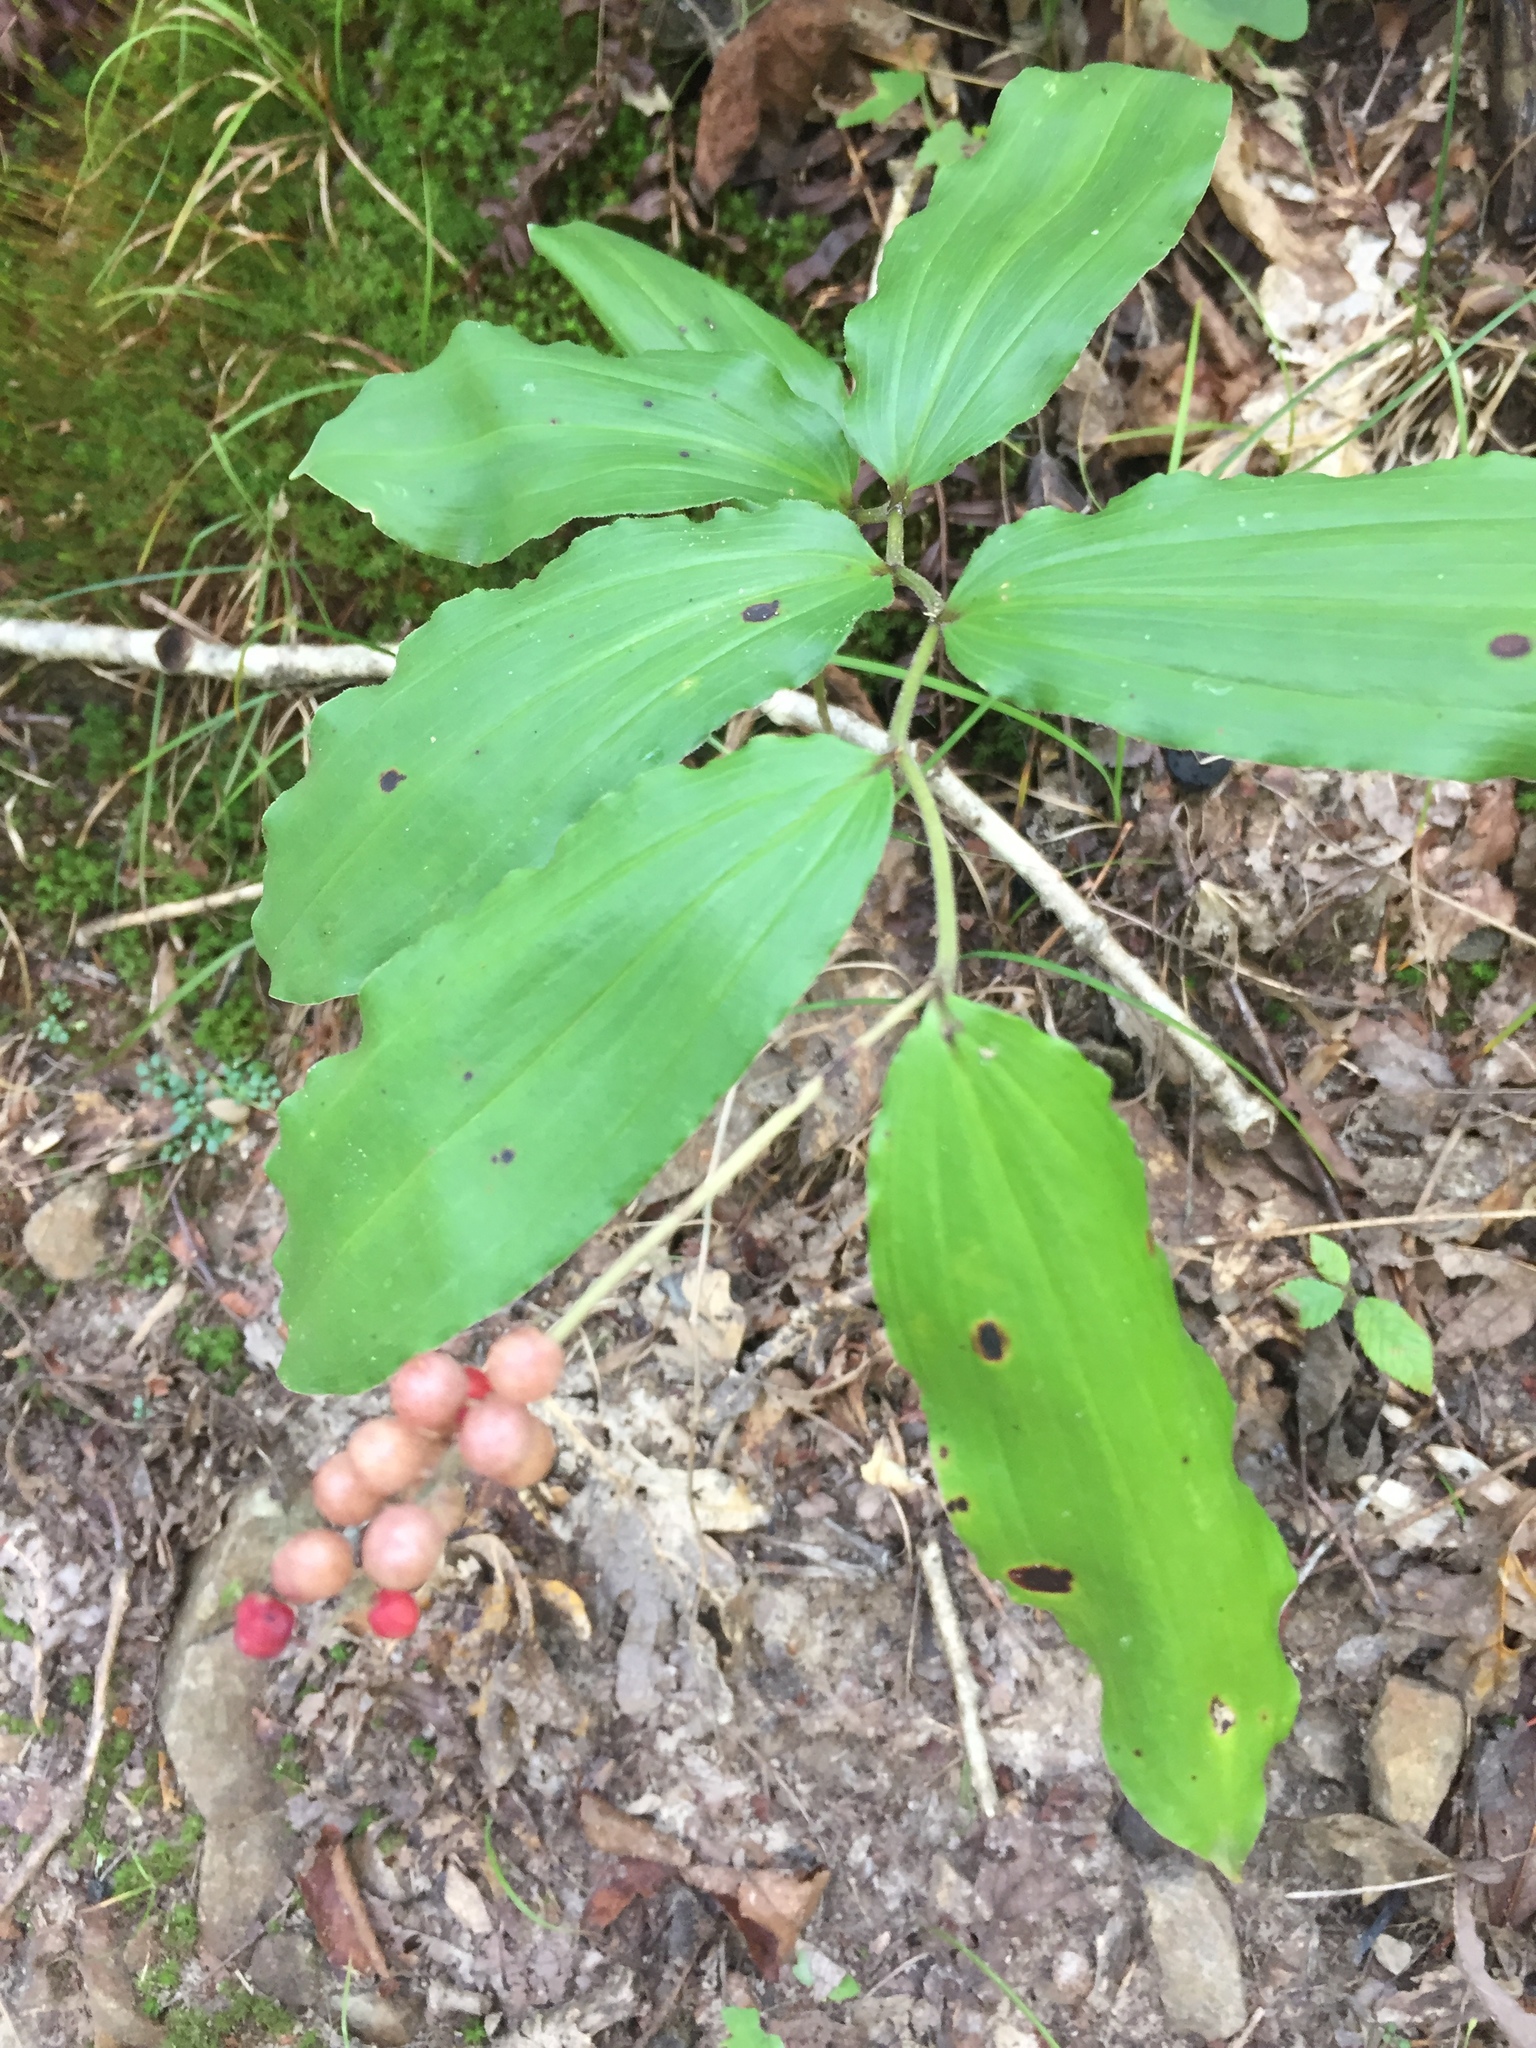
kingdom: Plantae
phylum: Tracheophyta
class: Liliopsida
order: Asparagales
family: Asparagaceae
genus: Maianthemum
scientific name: Maianthemum racemosum
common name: False spikenard
